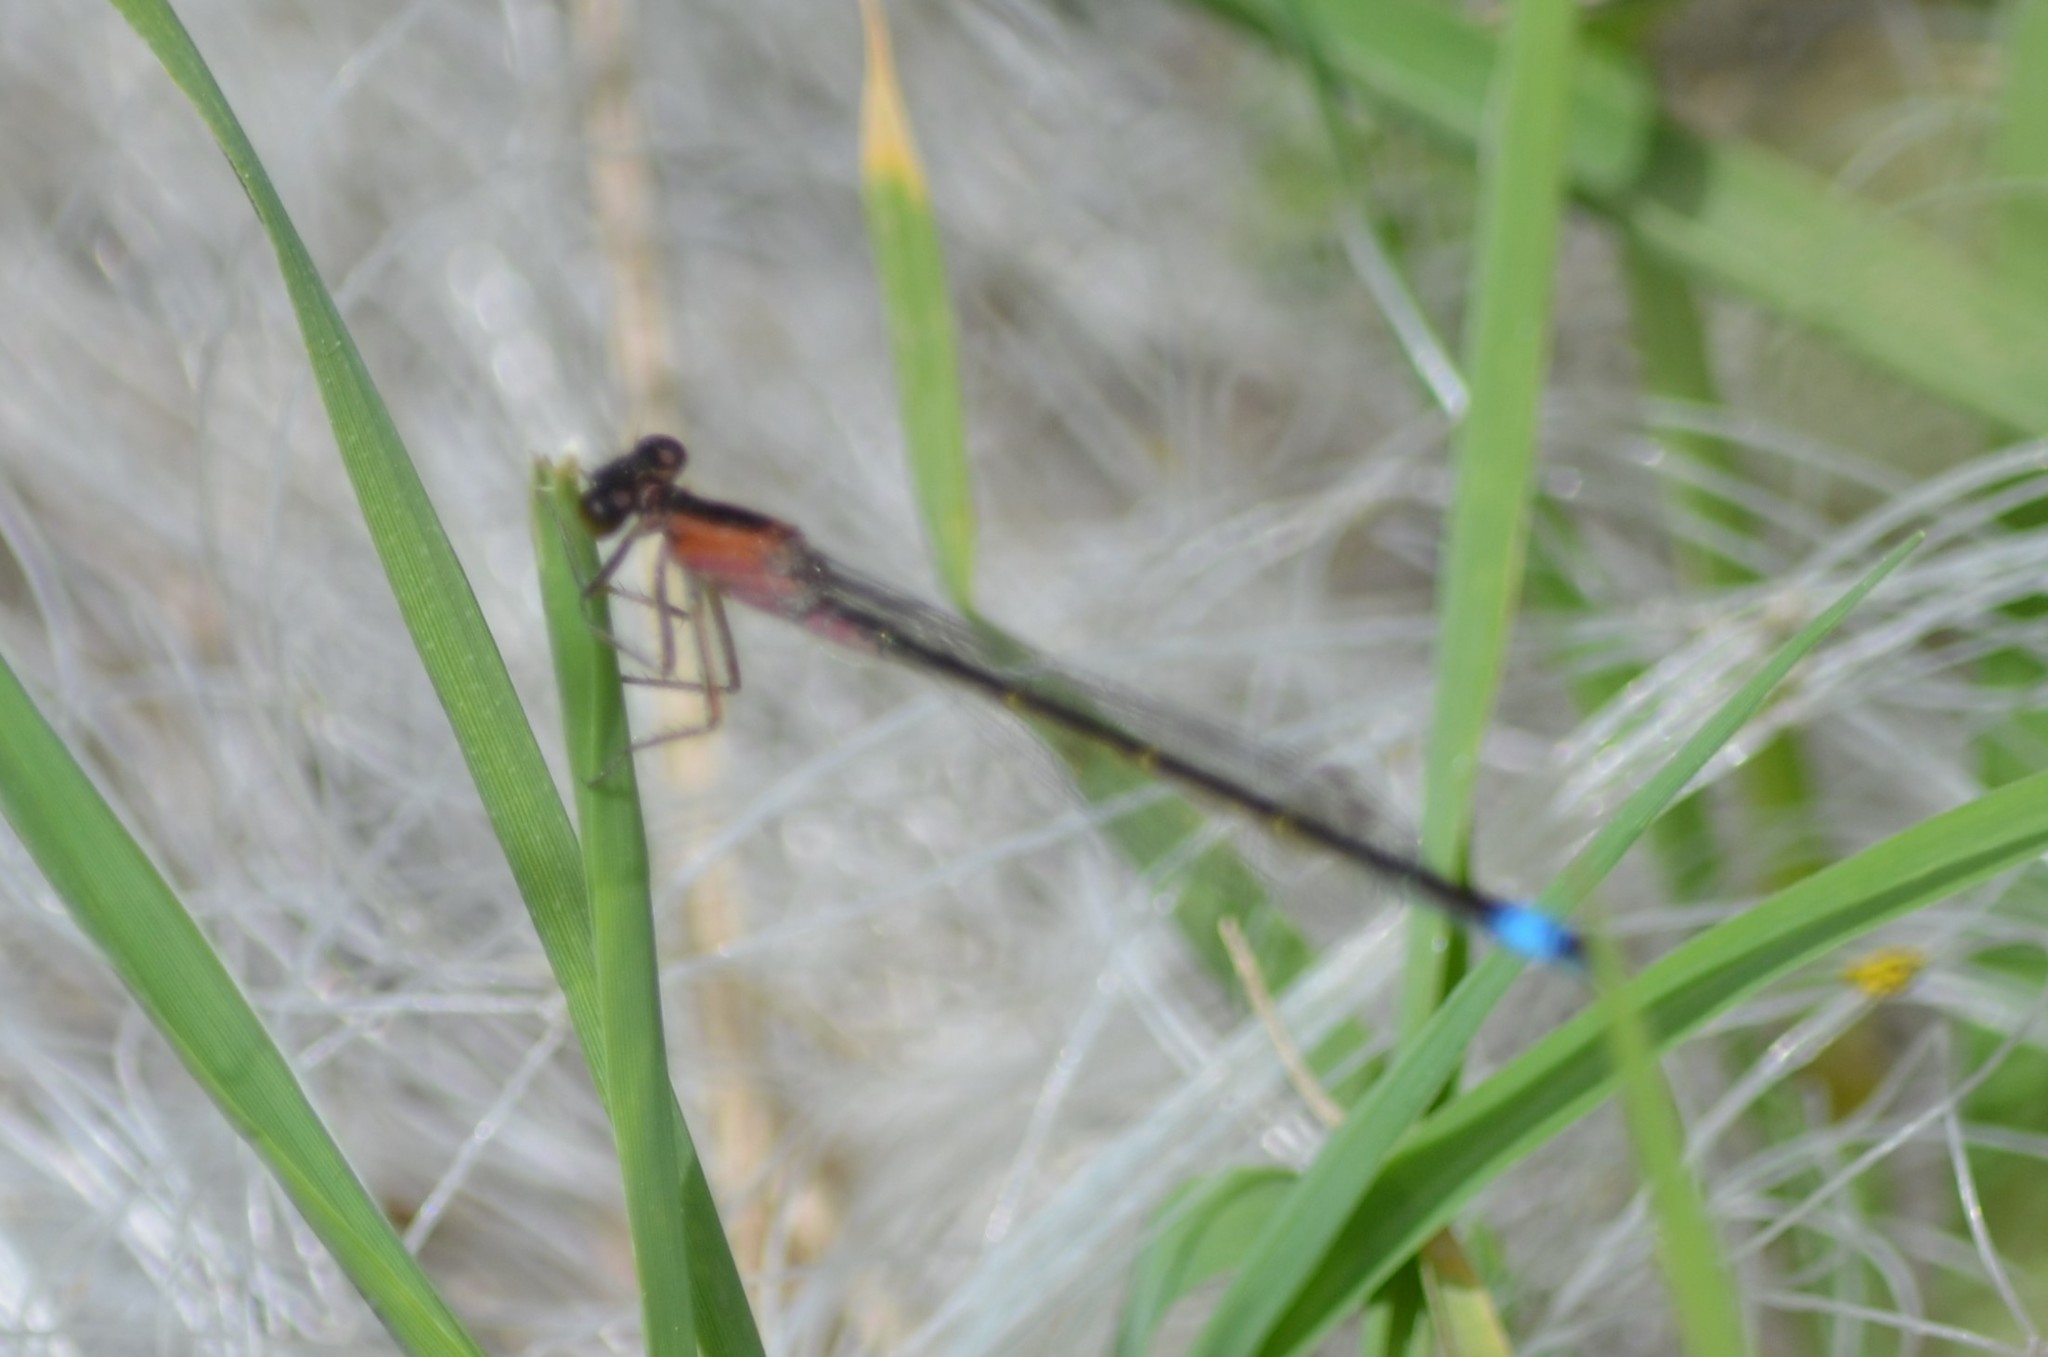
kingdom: Animalia
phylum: Arthropoda
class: Insecta
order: Odonata
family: Coenagrionidae
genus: Ischnura
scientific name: Ischnura elegans
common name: Blue-tailed damselfly
